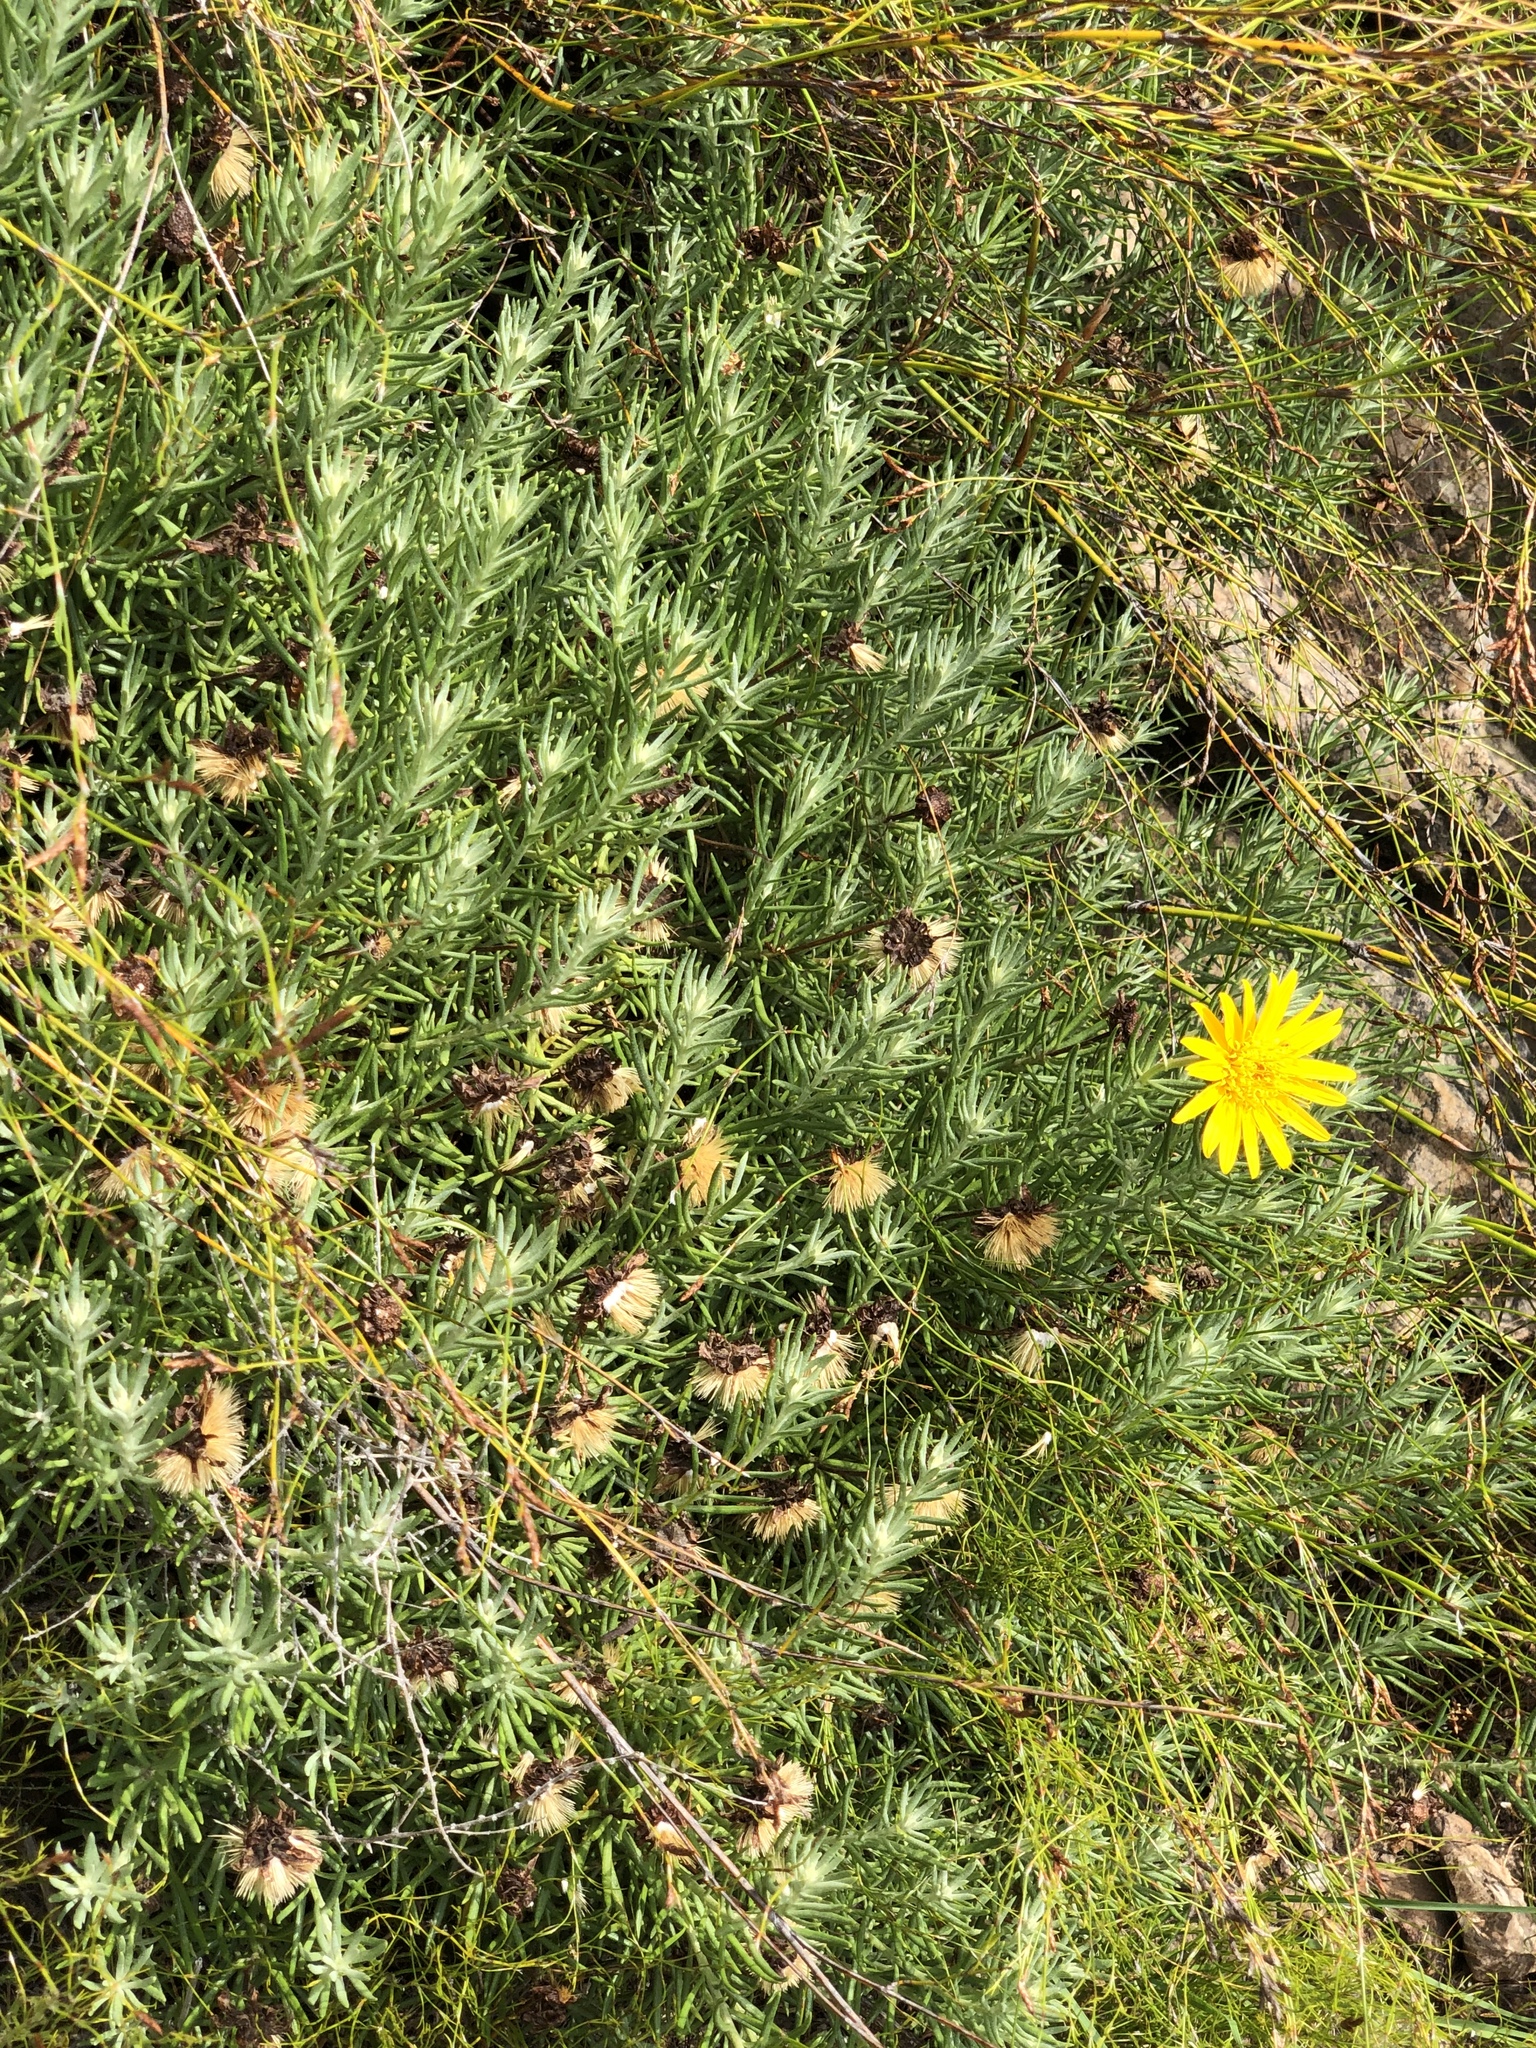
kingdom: Plantae
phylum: Tracheophyta
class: Magnoliopsida
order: Asterales
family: Asteraceae
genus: Heterolepis
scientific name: Heterolepis aliena
